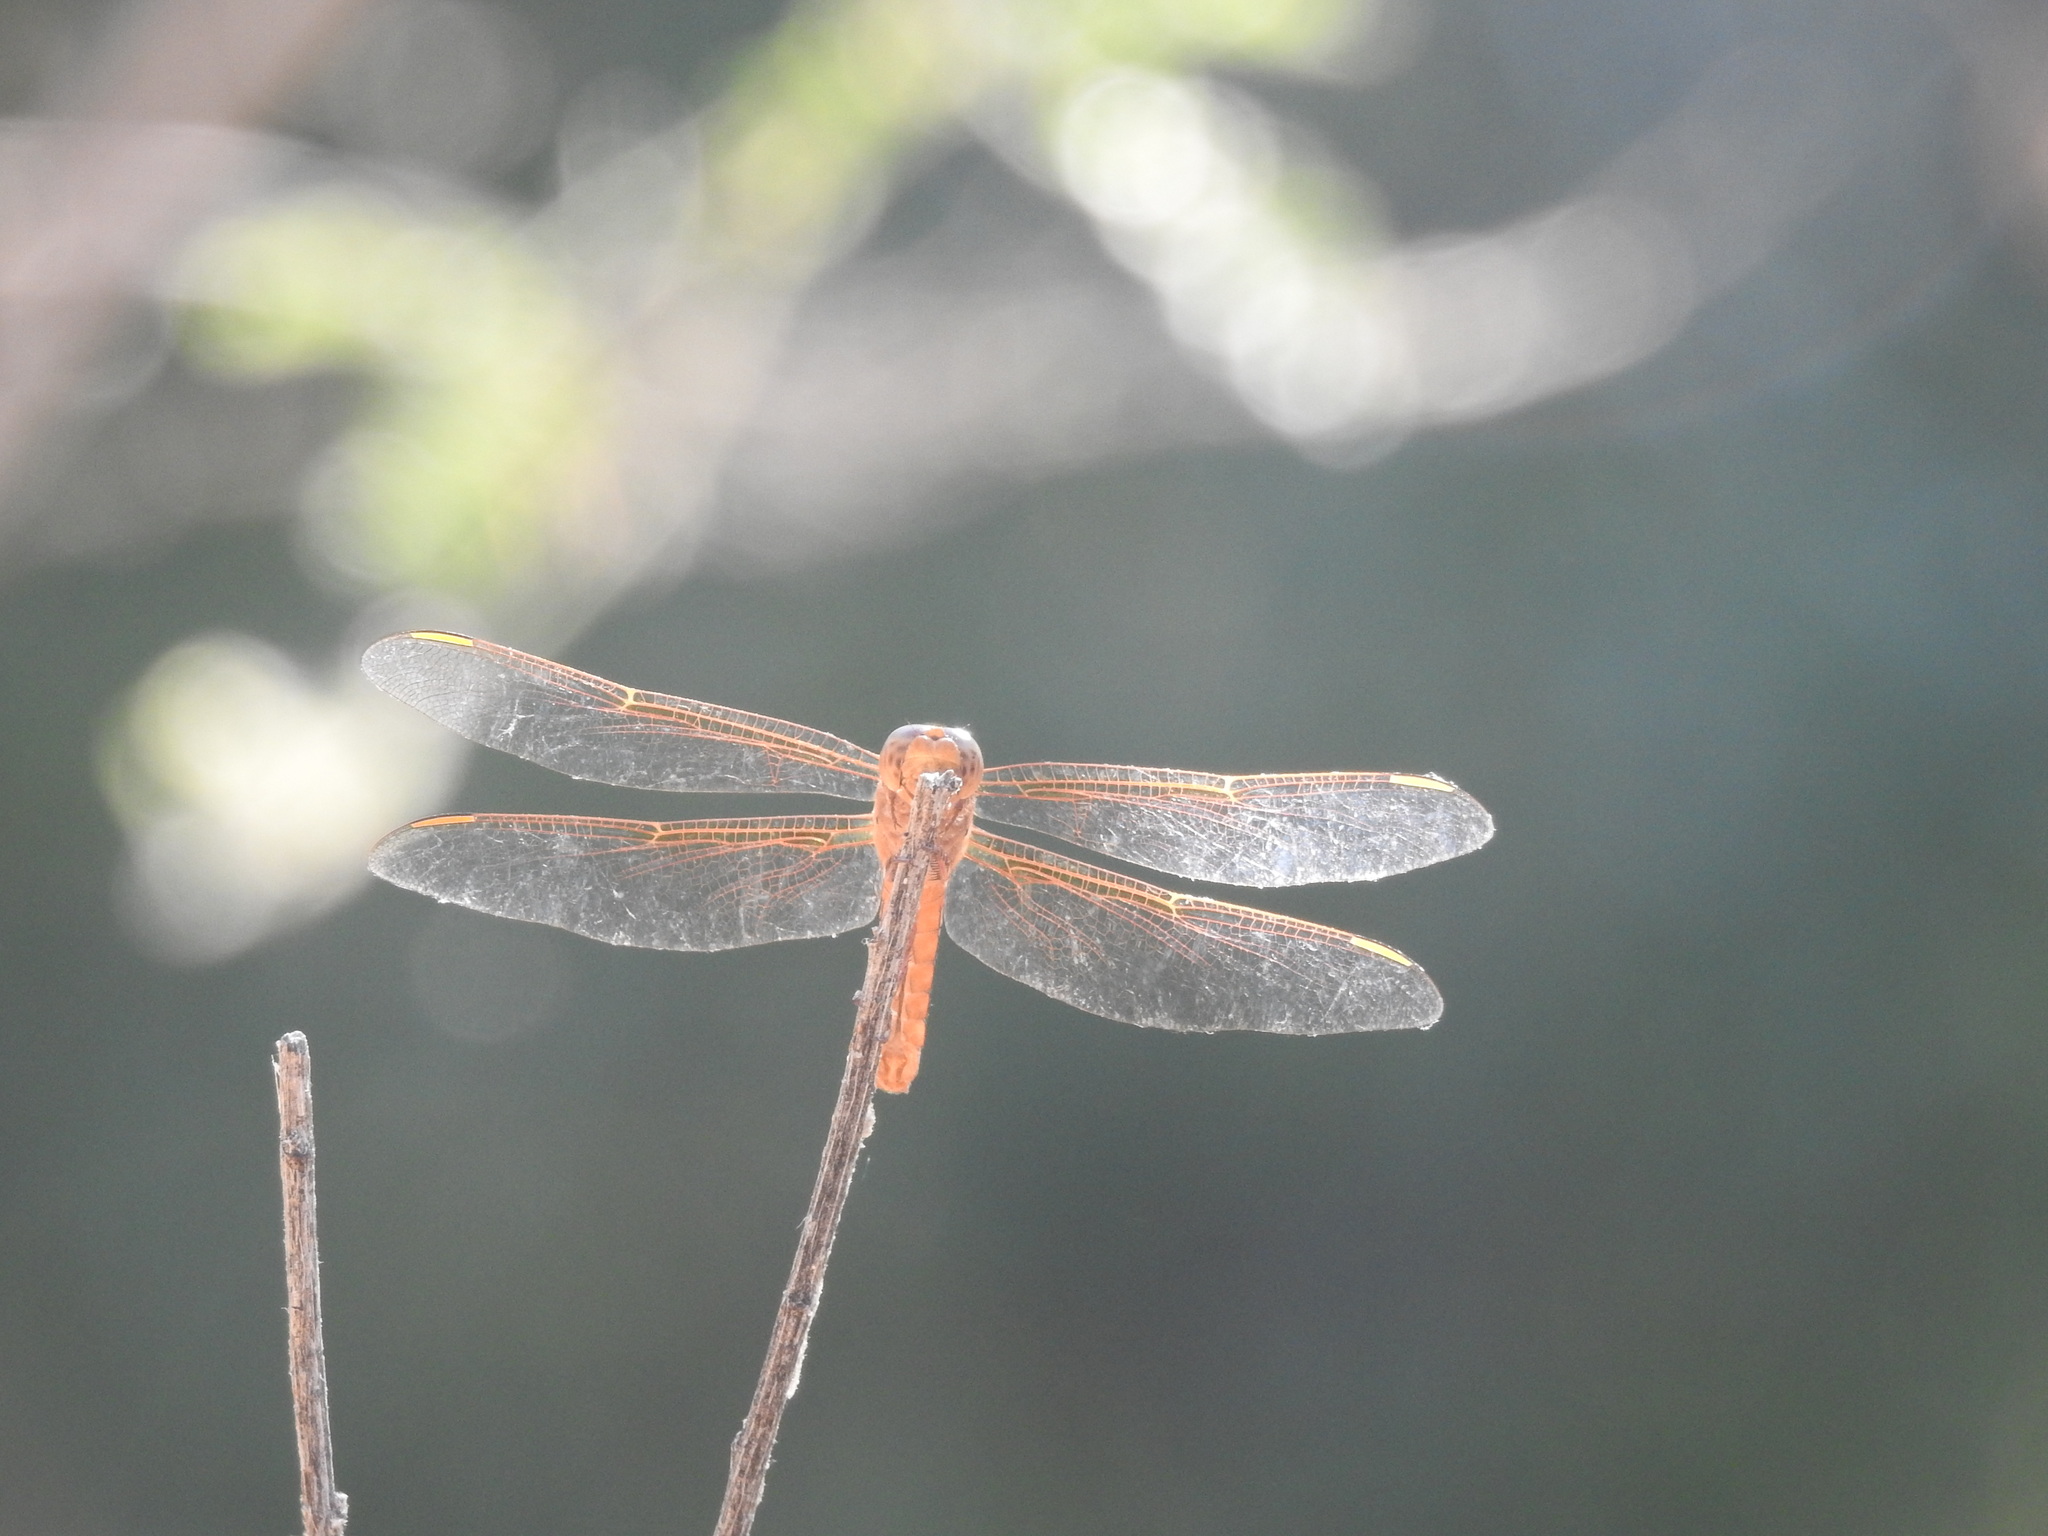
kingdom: Animalia
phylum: Arthropoda
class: Insecta
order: Odonata
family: Libellulidae
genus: Libellula
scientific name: Libellula saturata
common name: Flame skimmer
